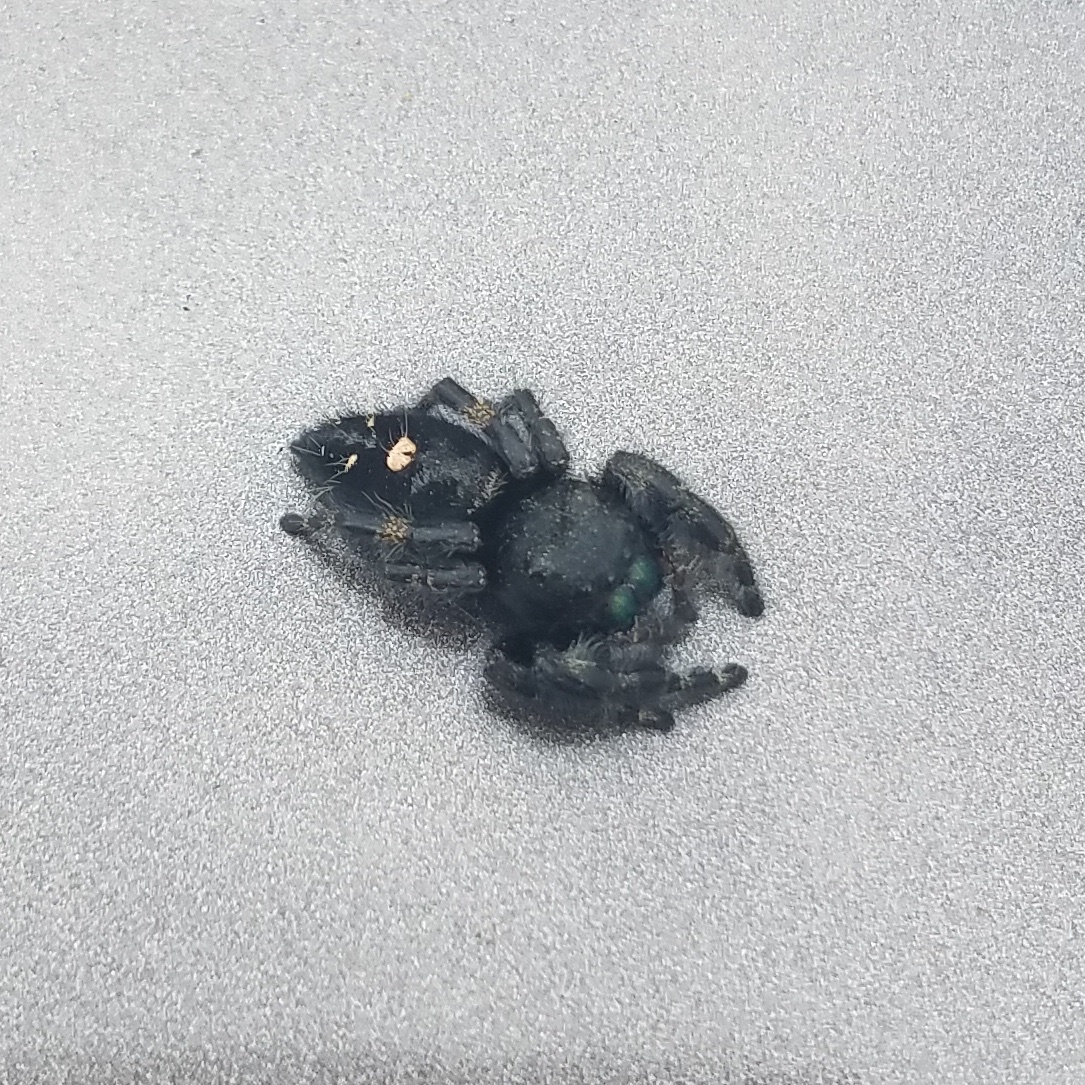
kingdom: Animalia
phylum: Arthropoda
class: Arachnida
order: Araneae
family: Salticidae
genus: Phidippus
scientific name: Phidippus audax
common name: Bold jumper
